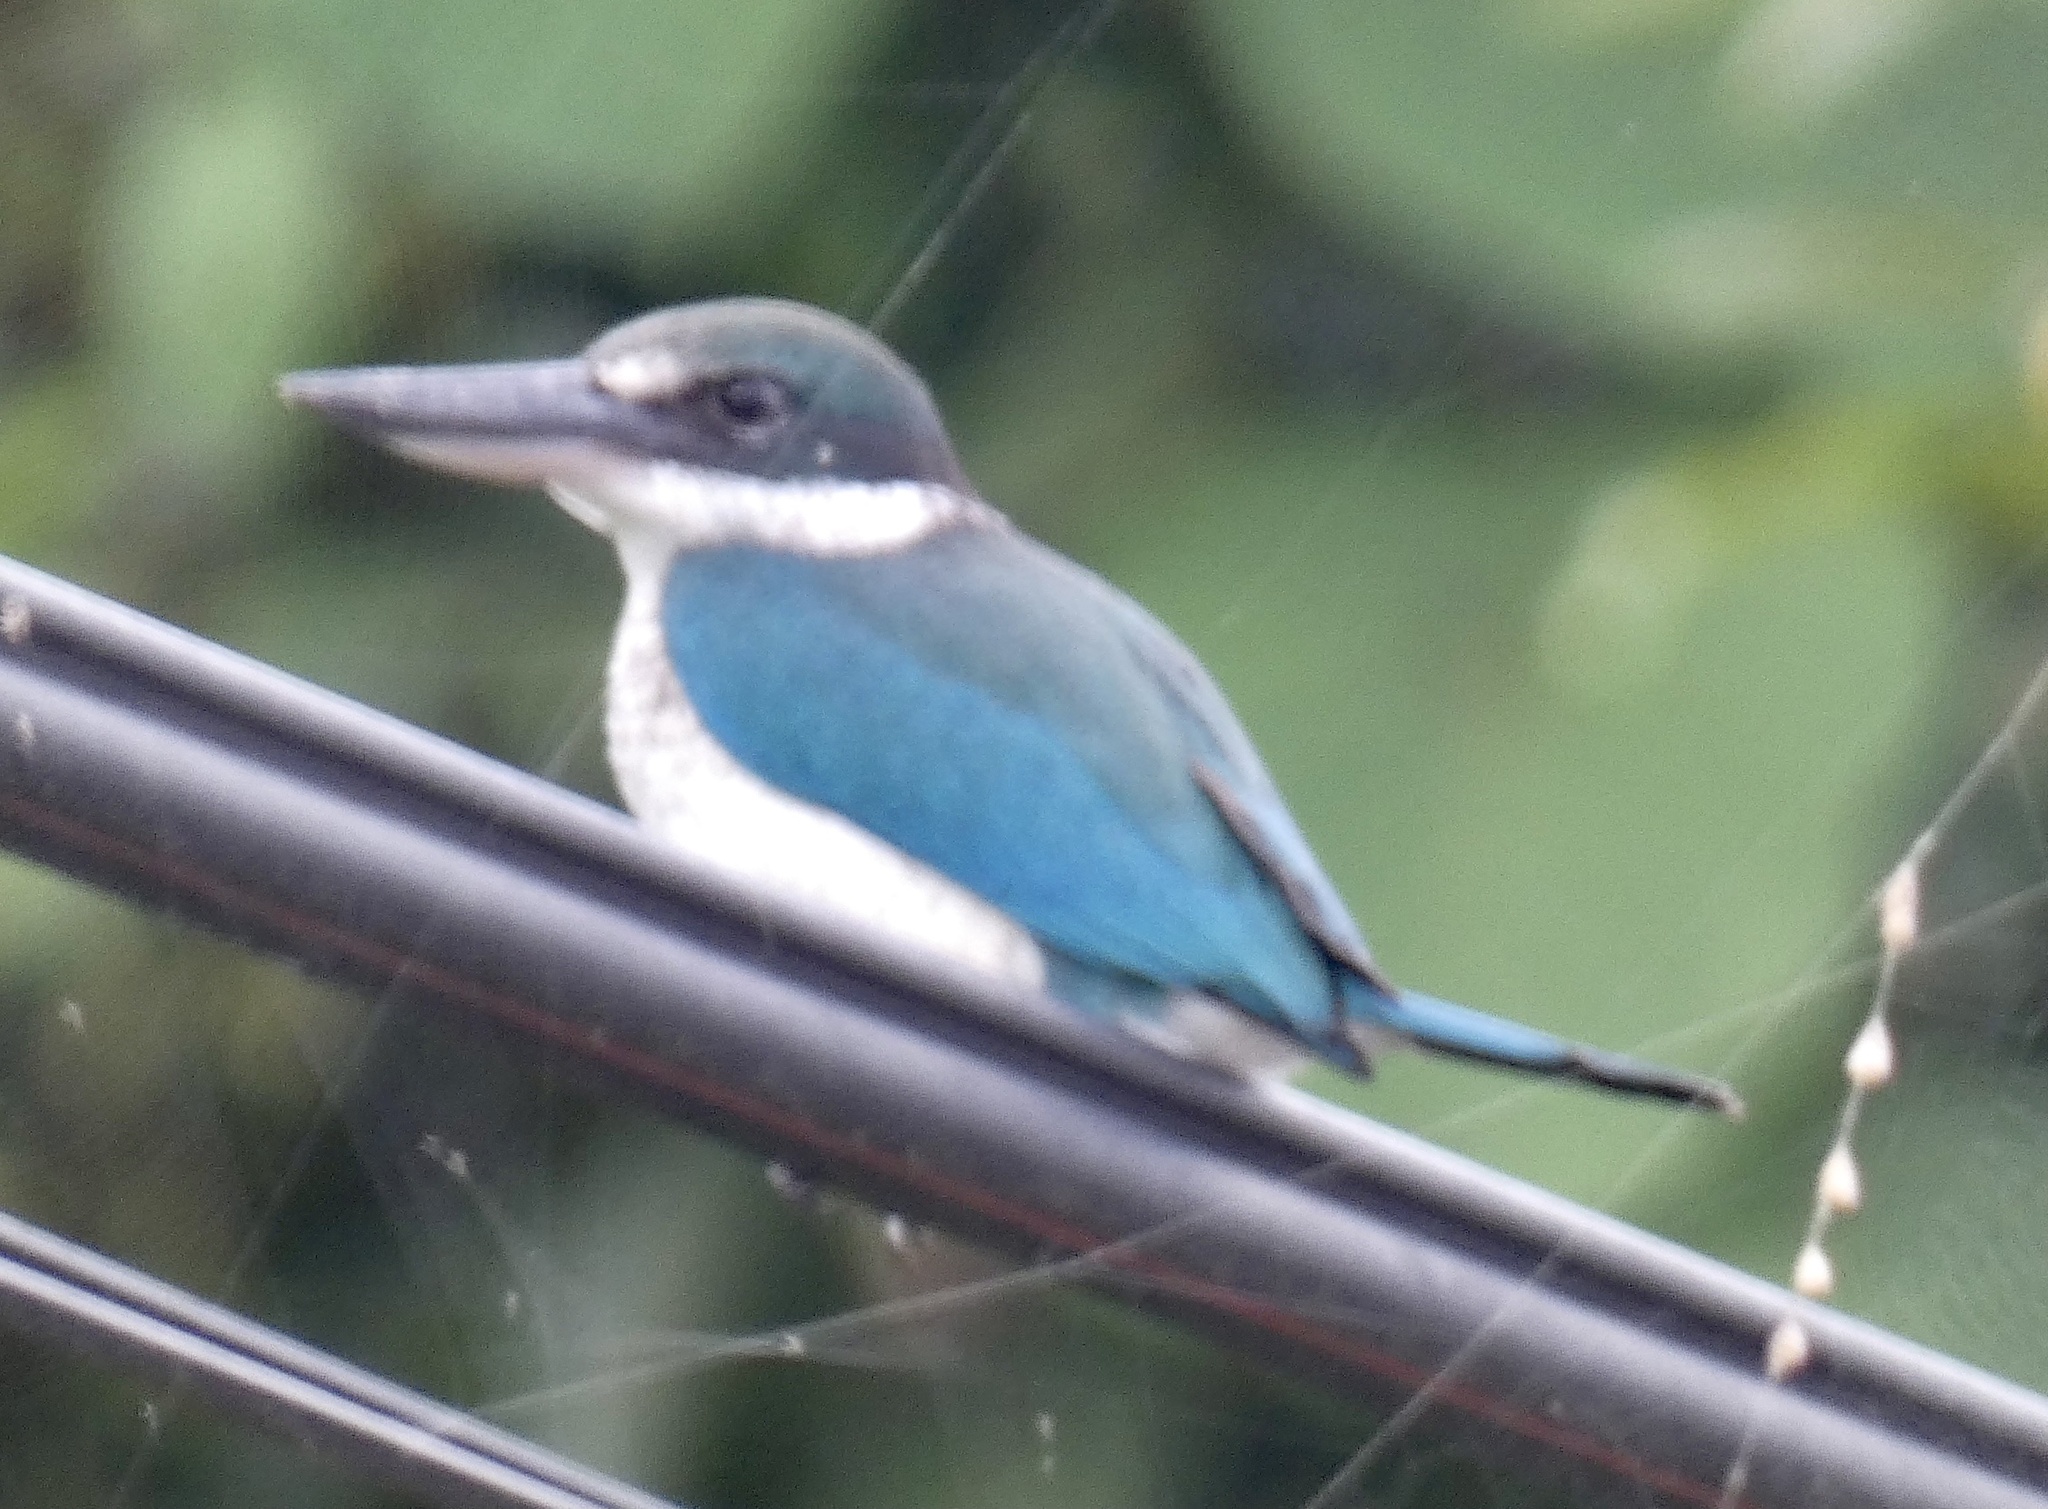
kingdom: Animalia
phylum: Chordata
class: Aves
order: Coraciiformes
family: Alcedinidae
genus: Todiramphus
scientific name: Todiramphus chloris
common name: Collared kingfisher
